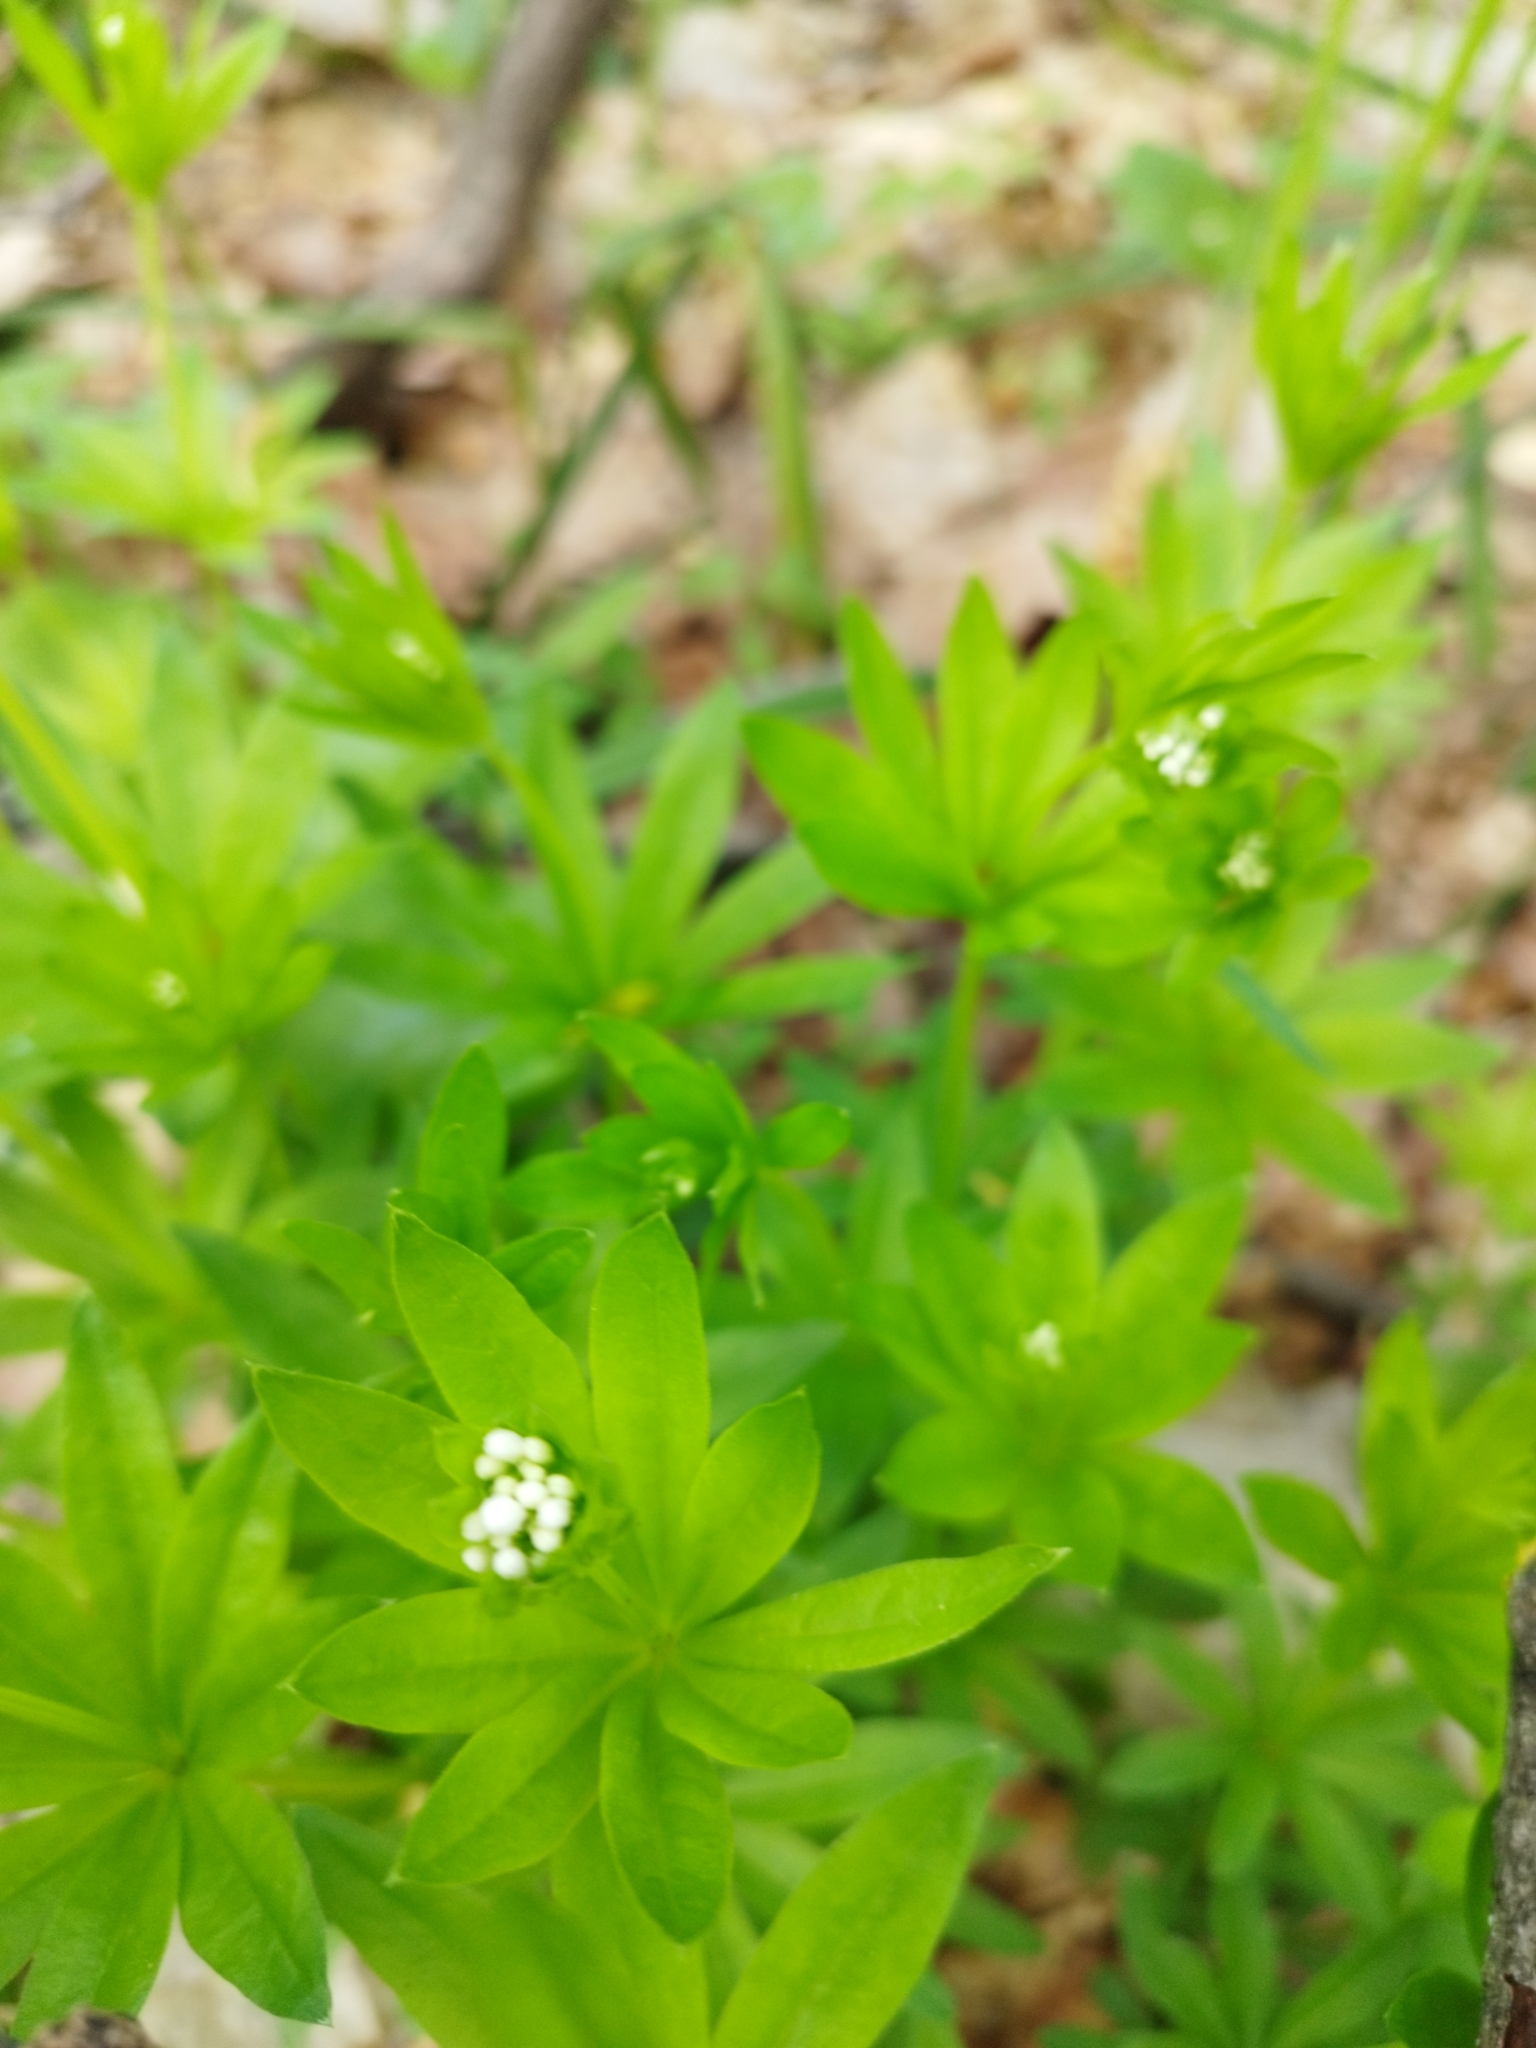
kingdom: Plantae
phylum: Tracheophyta
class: Magnoliopsida
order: Gentianales
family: Rubiaceae
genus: Galium
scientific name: Galium odoratum
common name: Sweet woodruff
